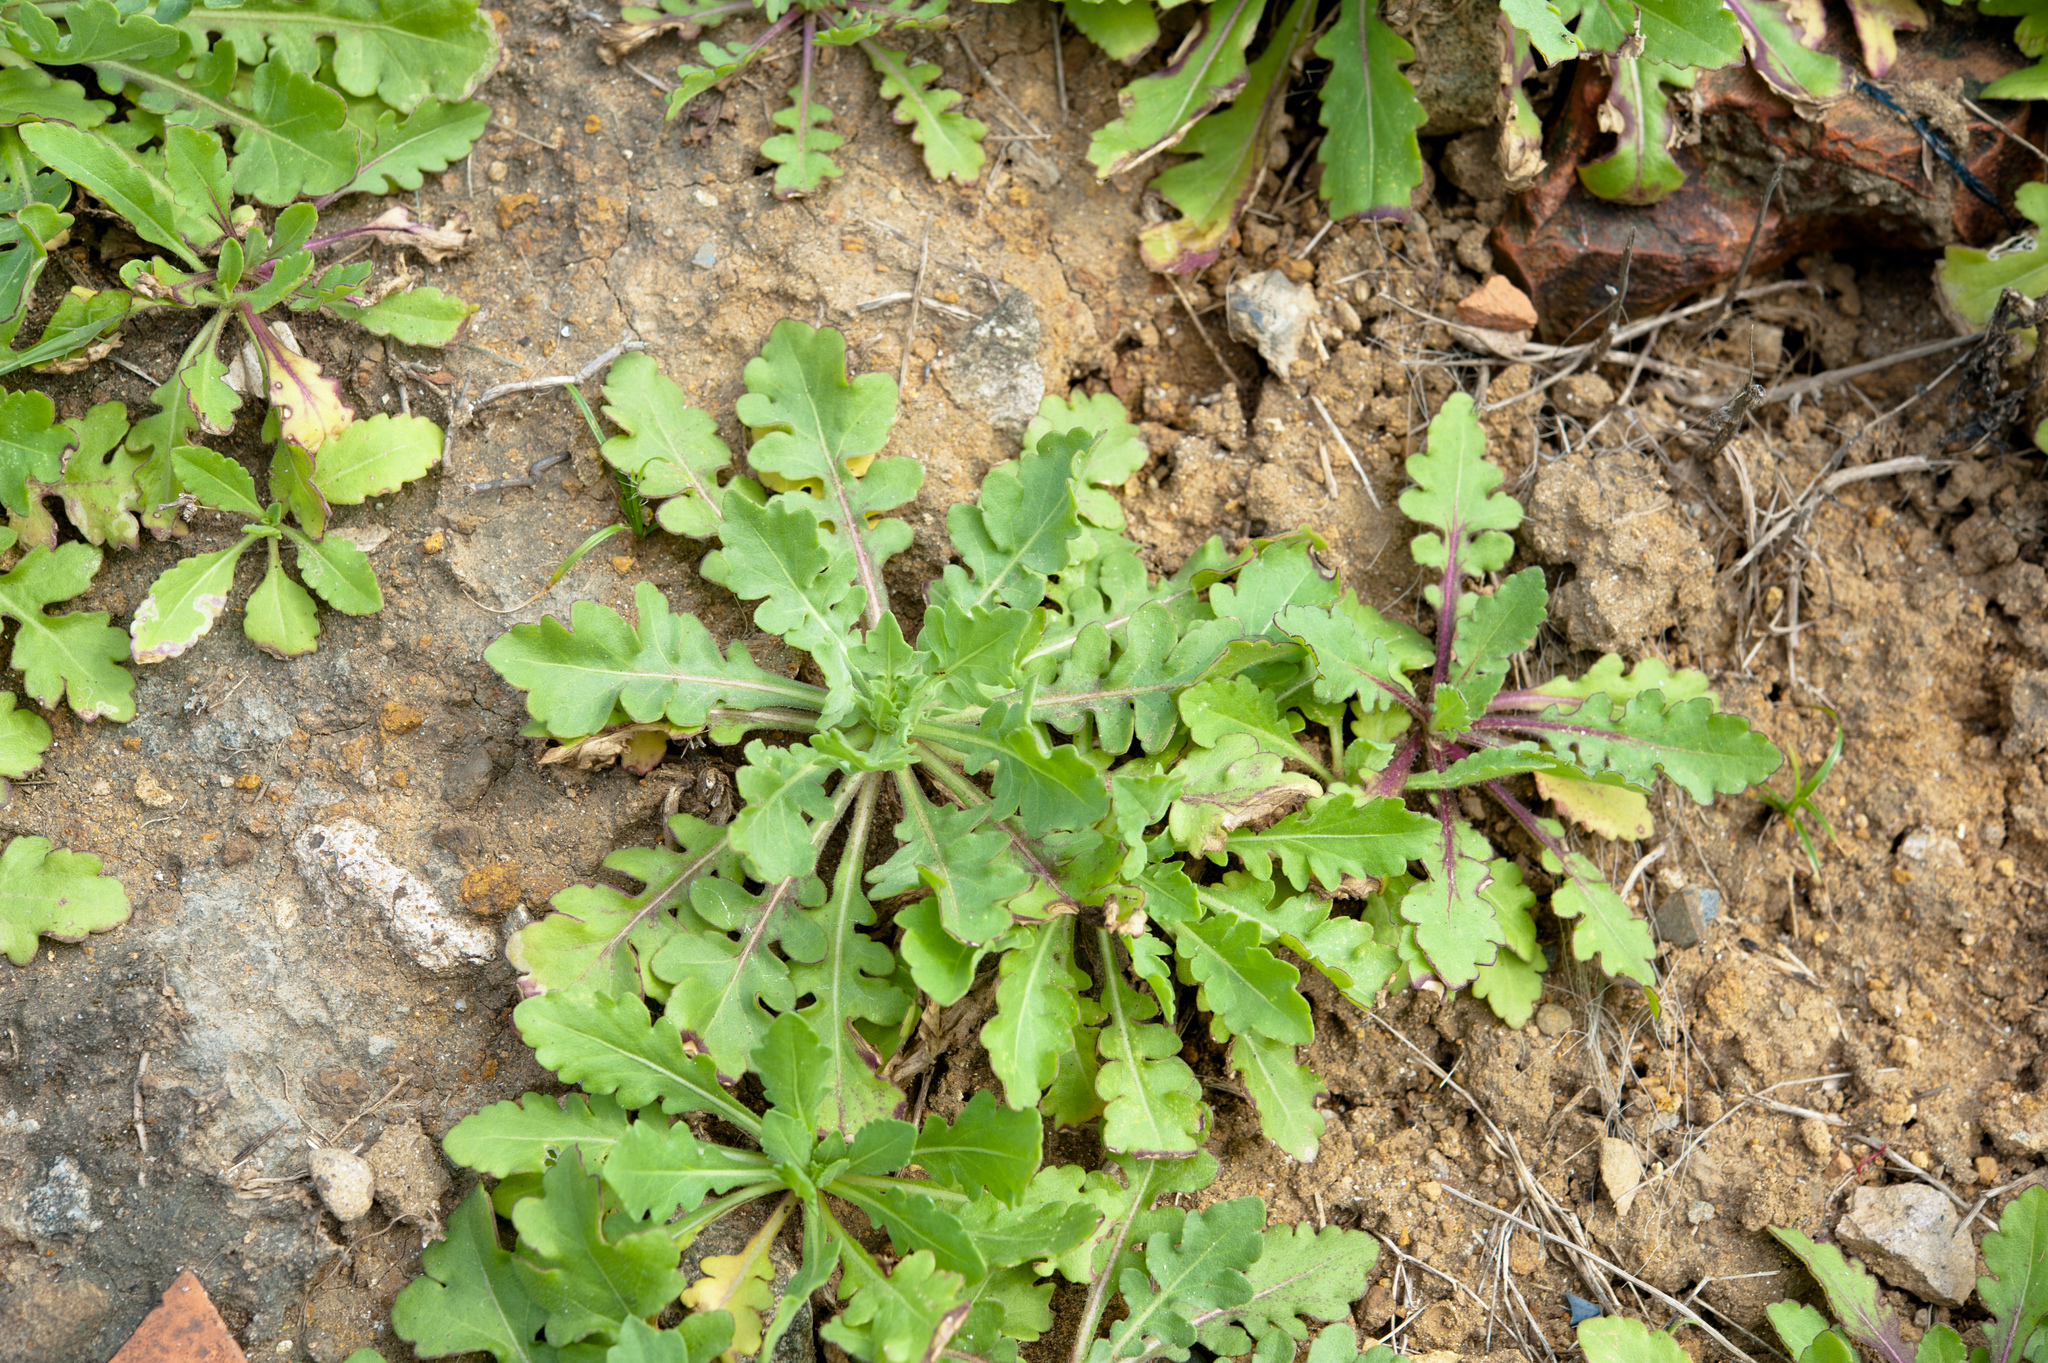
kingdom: Plantae
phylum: Tracheophyta
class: Magnoliopsida
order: Asterales
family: Asteraceae
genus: Crepidiastrum
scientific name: Crepidiastrum lanceolatum
